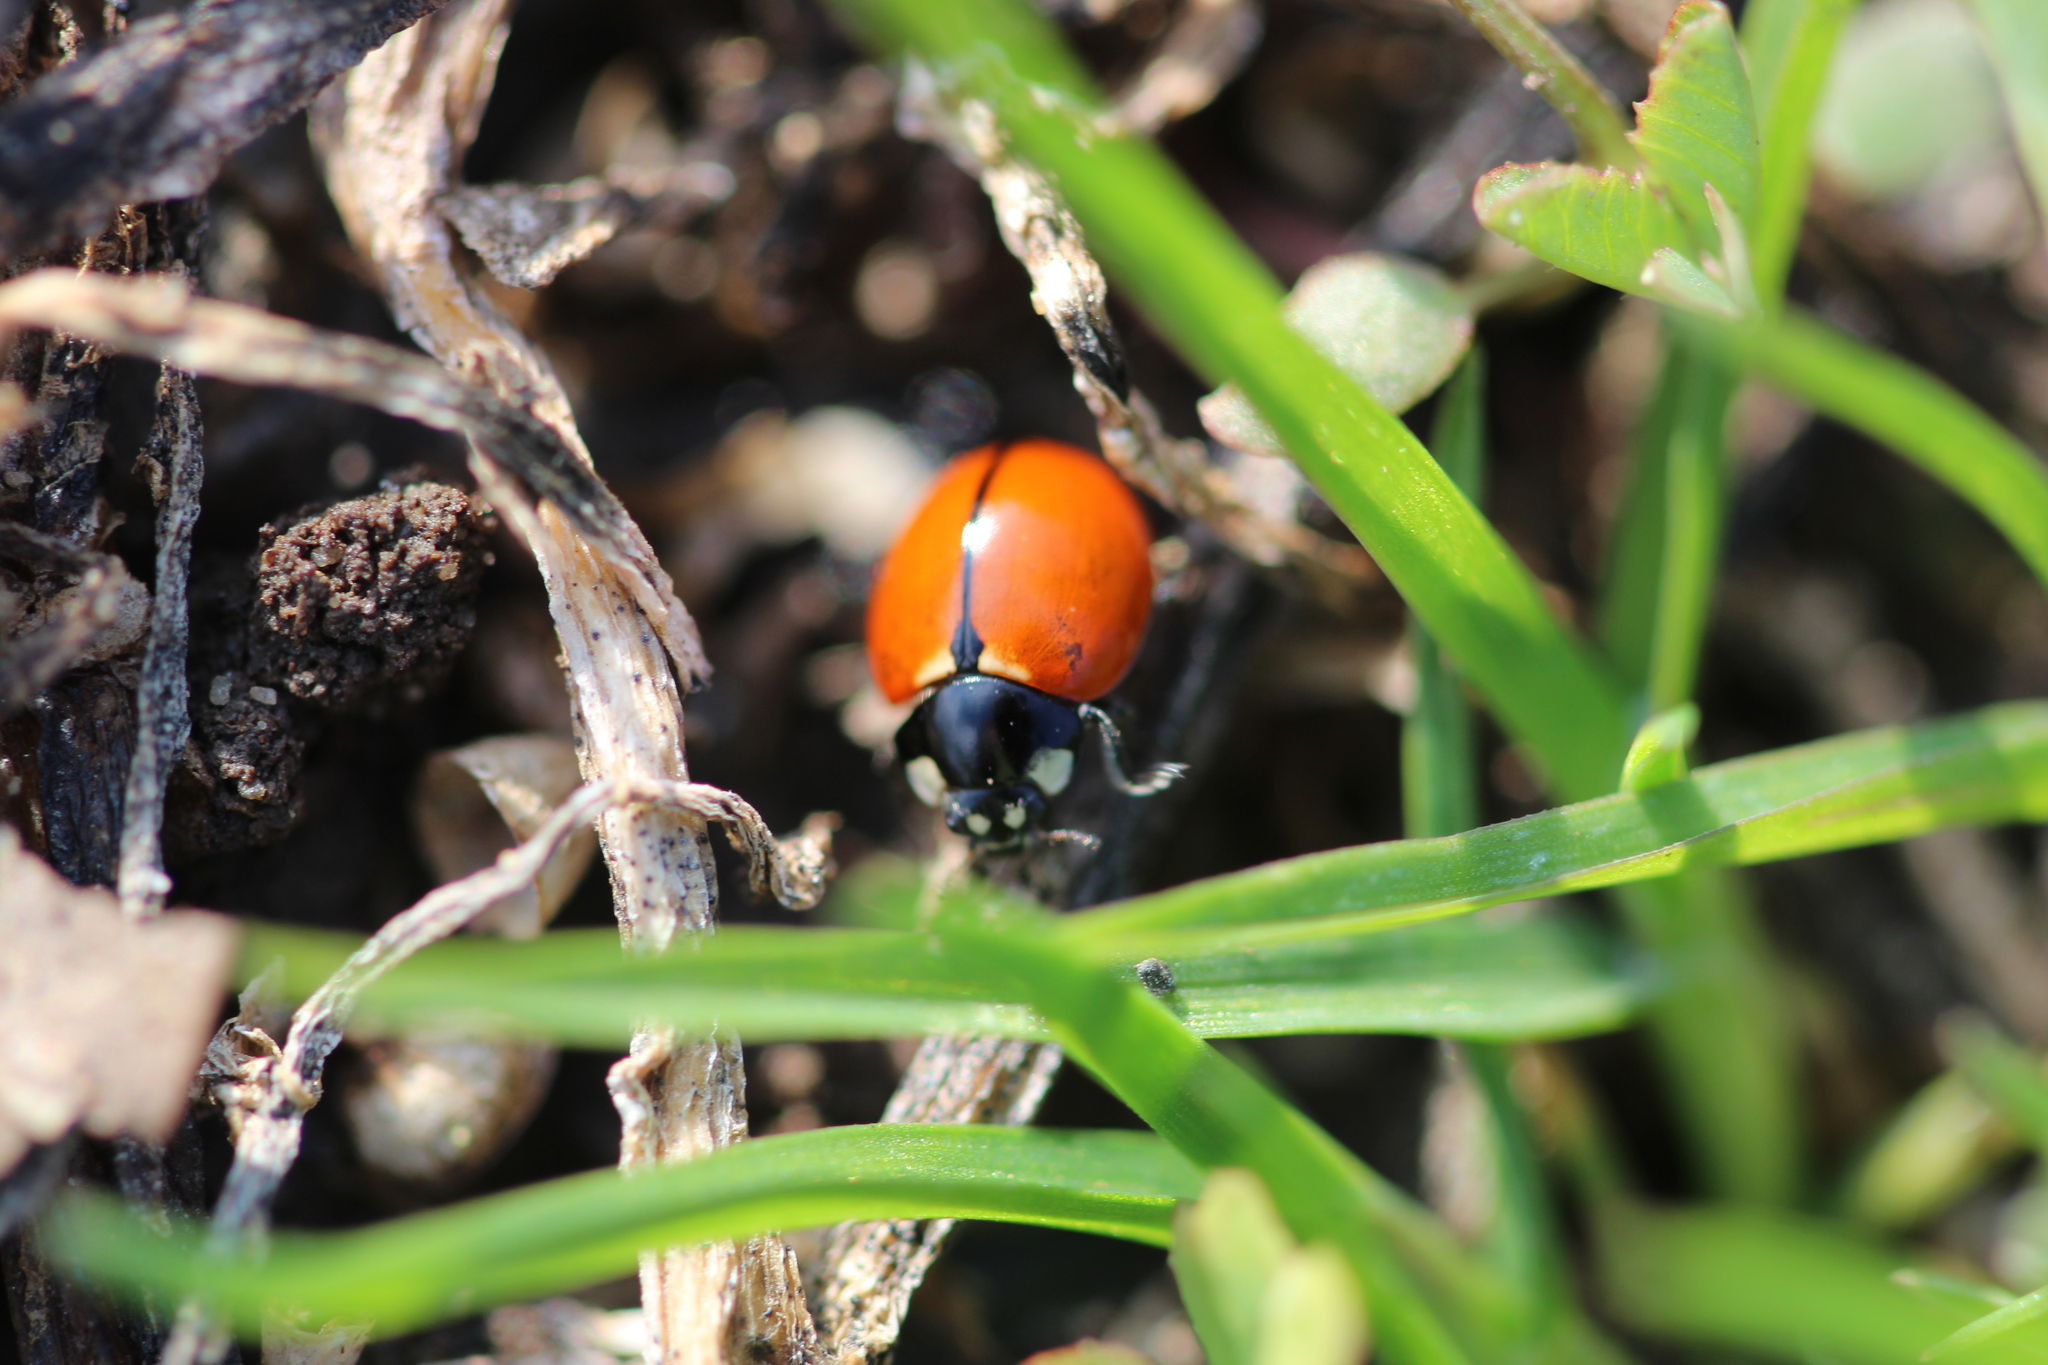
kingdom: Animalia
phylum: Arthropoda
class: Insecta
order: Coleoptera
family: Coccinellidae
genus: Coccinella
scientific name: Coccinella californica
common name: Lady beetle
